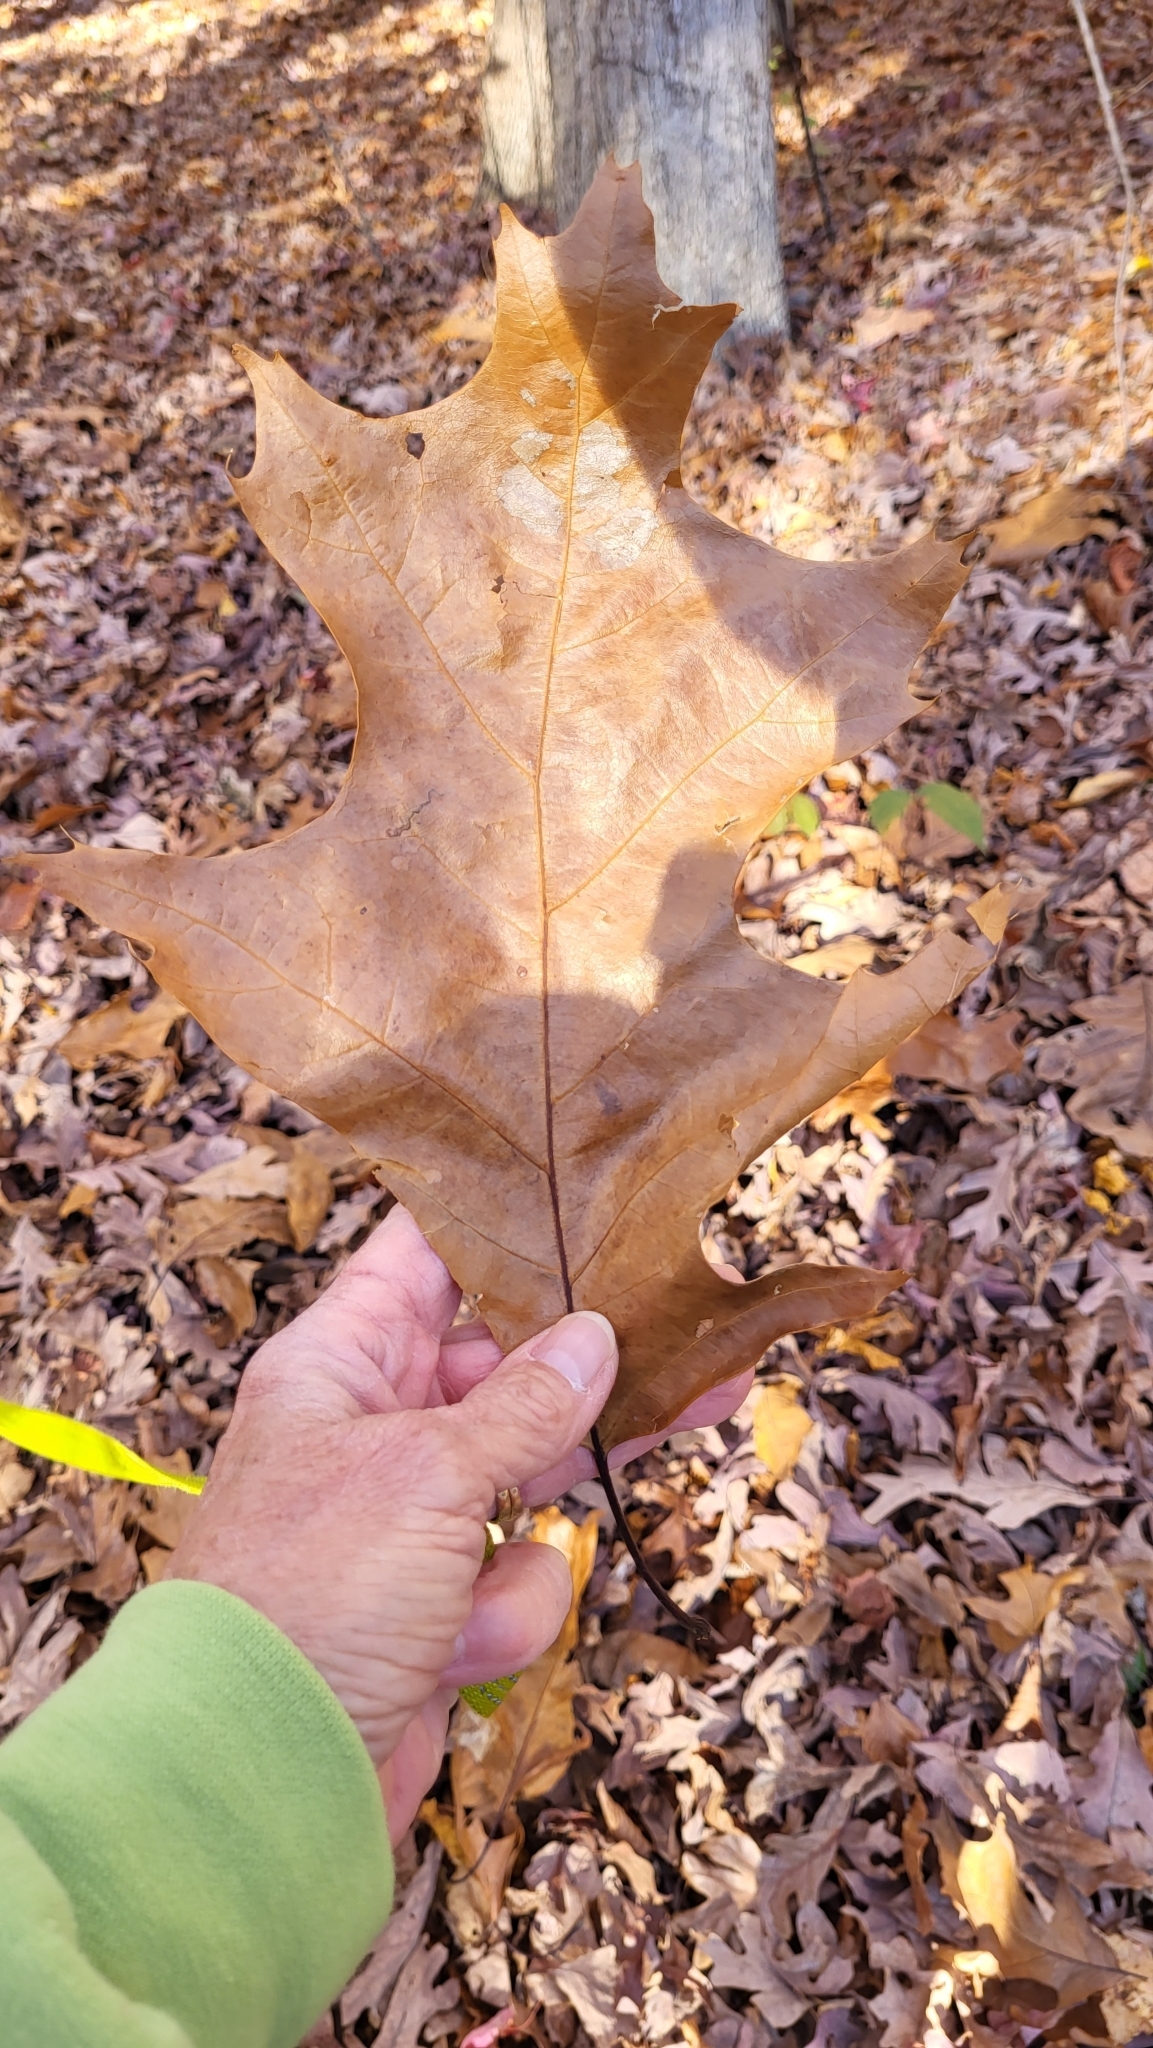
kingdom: Plantae
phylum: Tracheophyta
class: Magnoliopsida
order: Fagales
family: Fagaceae
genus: Quercus
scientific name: Quercus rubra
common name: Red oak
